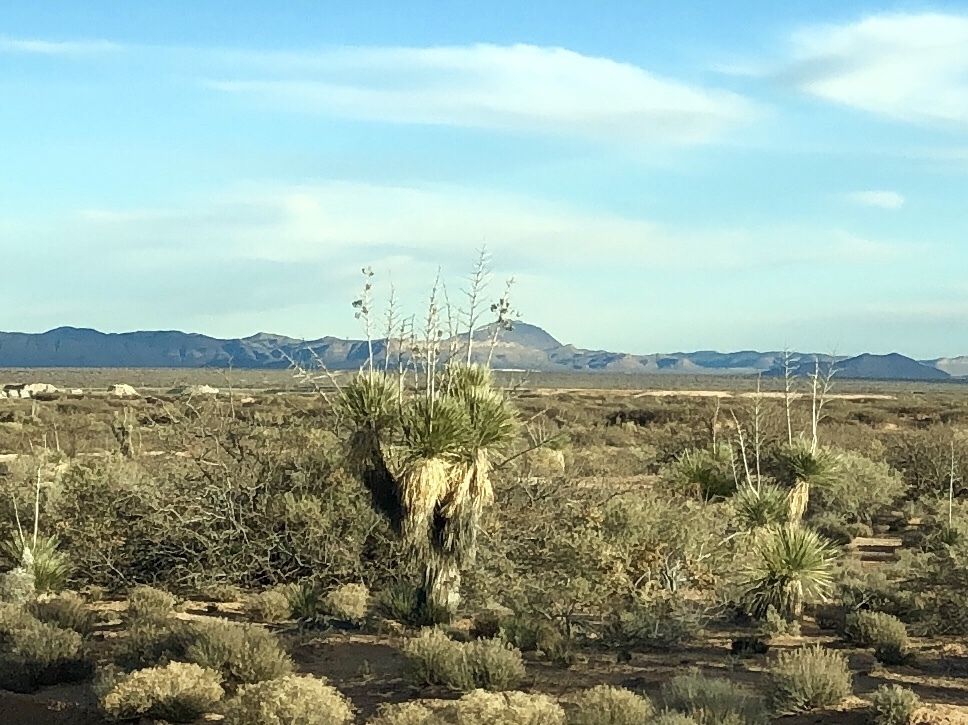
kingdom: Plantae
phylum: Tracheophyta
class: Liliopsida
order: Asparagales
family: Asparagaceae
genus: Yucca
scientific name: Yucca elata
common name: Palmella
